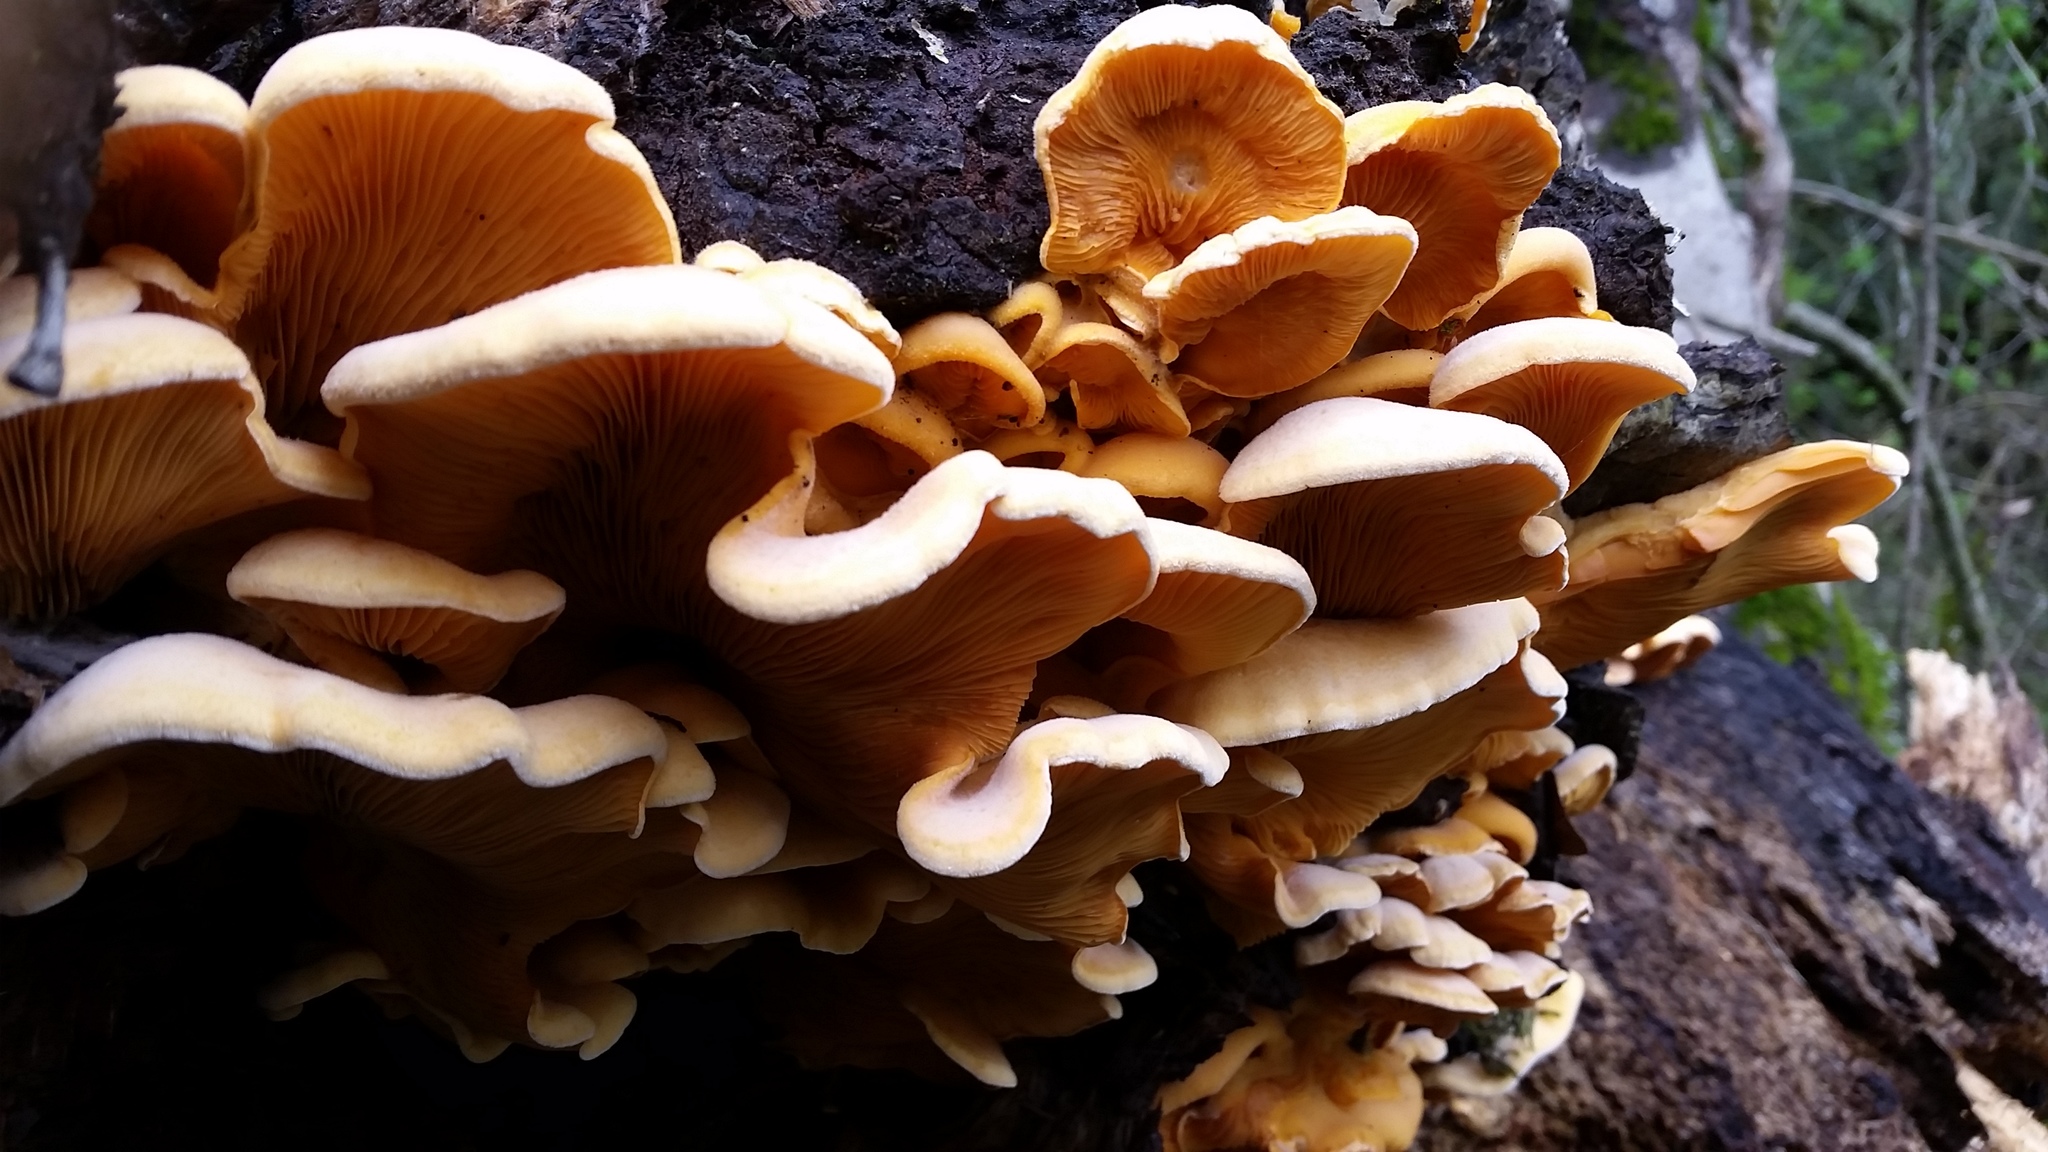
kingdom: Fungi
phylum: Basidiomycota
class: Agaricomycetes
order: Agaricales
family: Phyllotopsidaceae
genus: Phyllotopsis
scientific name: Phyllotopsis nidulans
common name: Orange mock oyster
